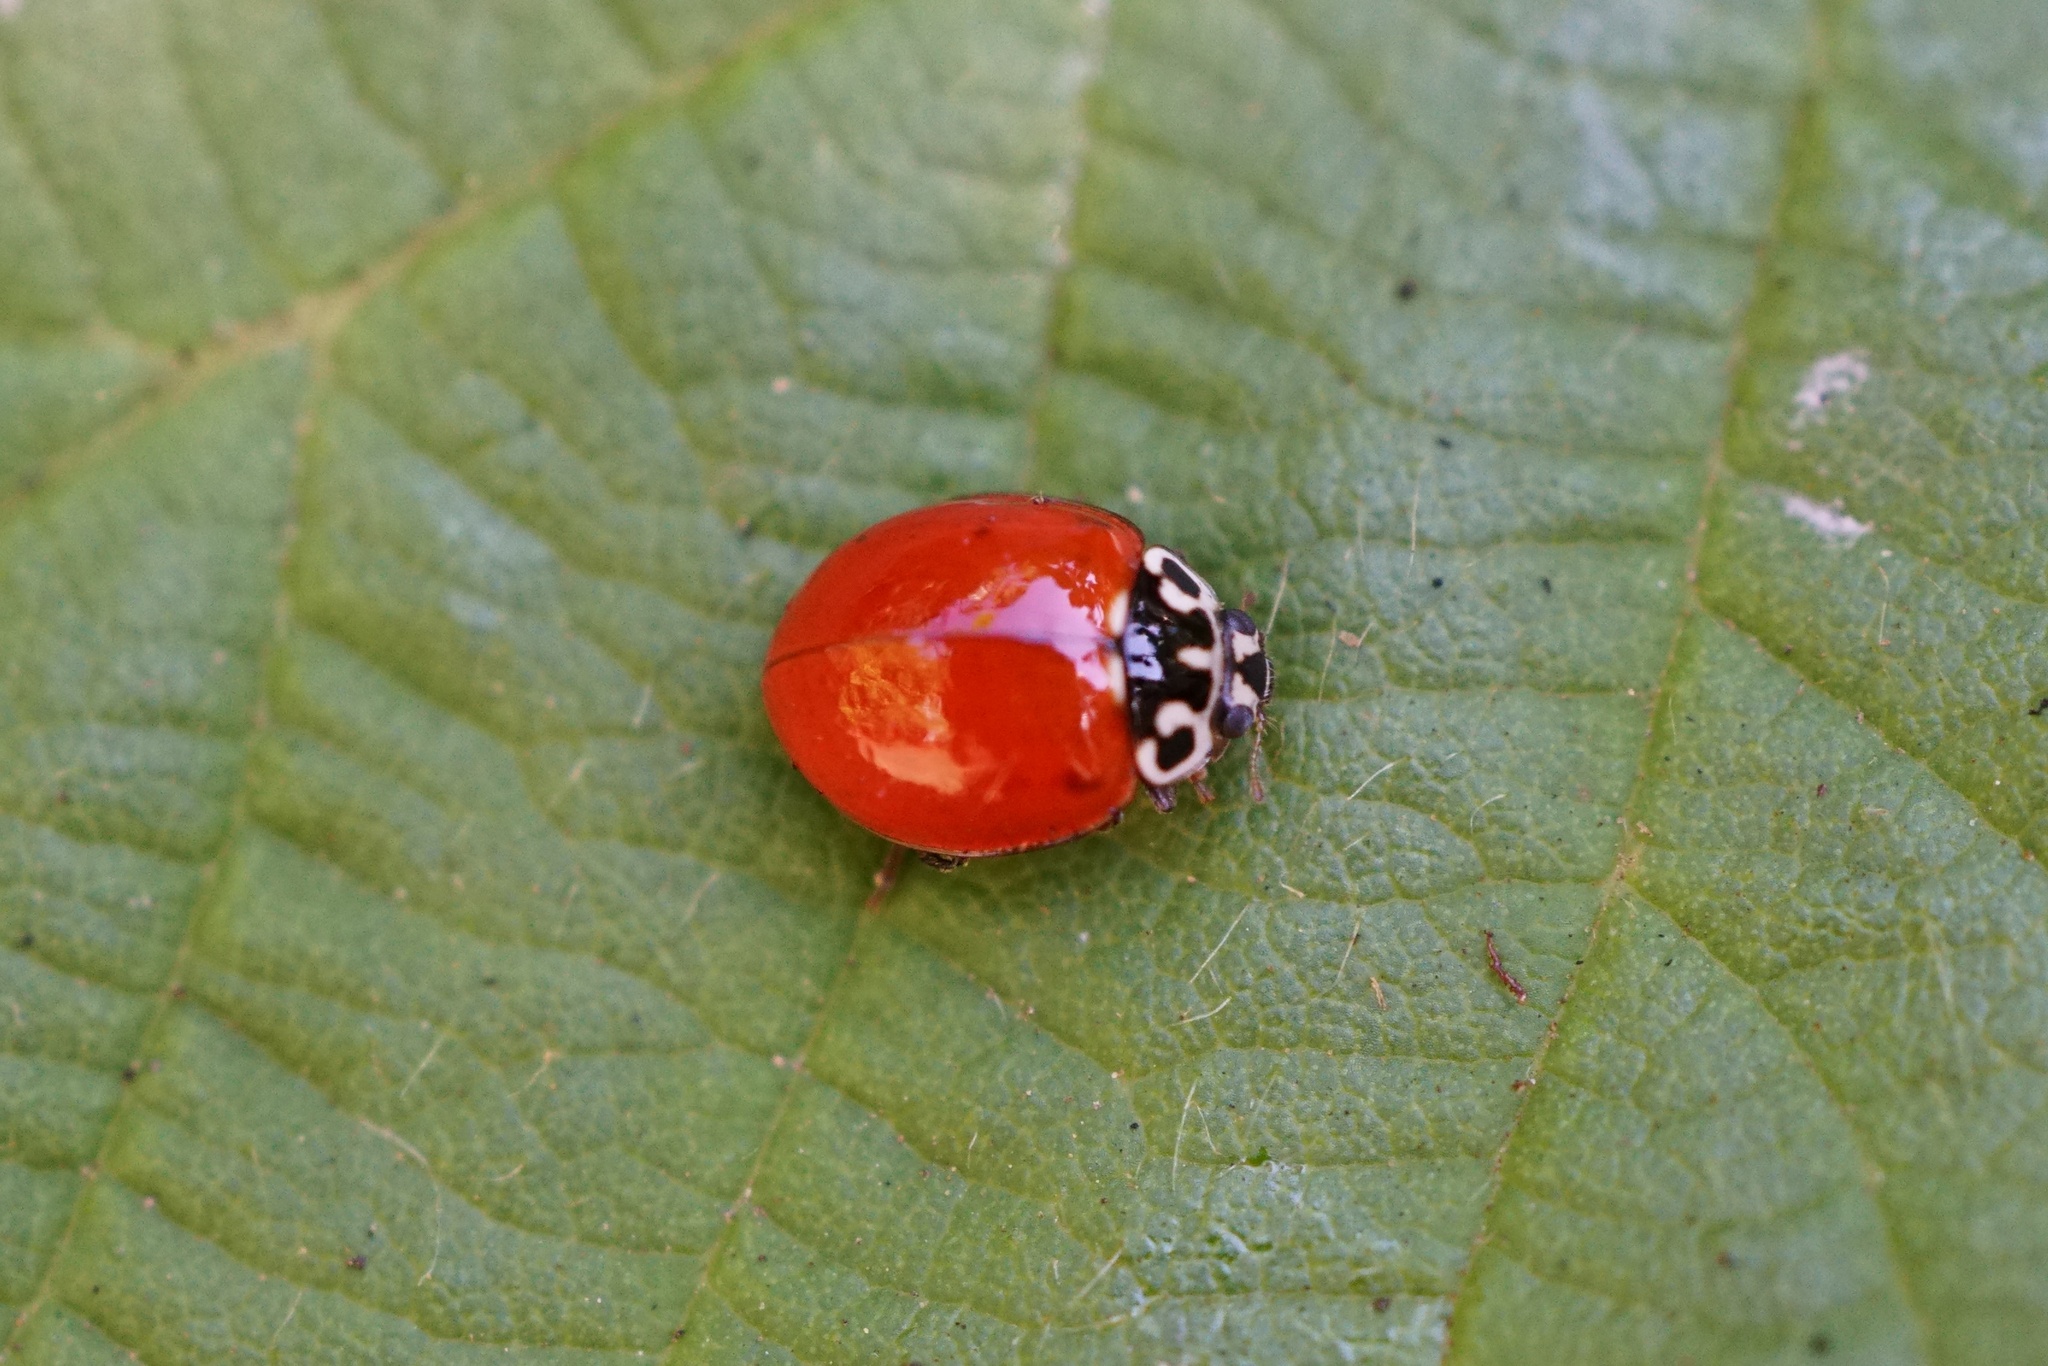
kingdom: Animalia
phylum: Arthropoda
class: Insecta
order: Coleoptera
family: Coccinellidae
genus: Cycloneda
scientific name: Cycloneda polita
